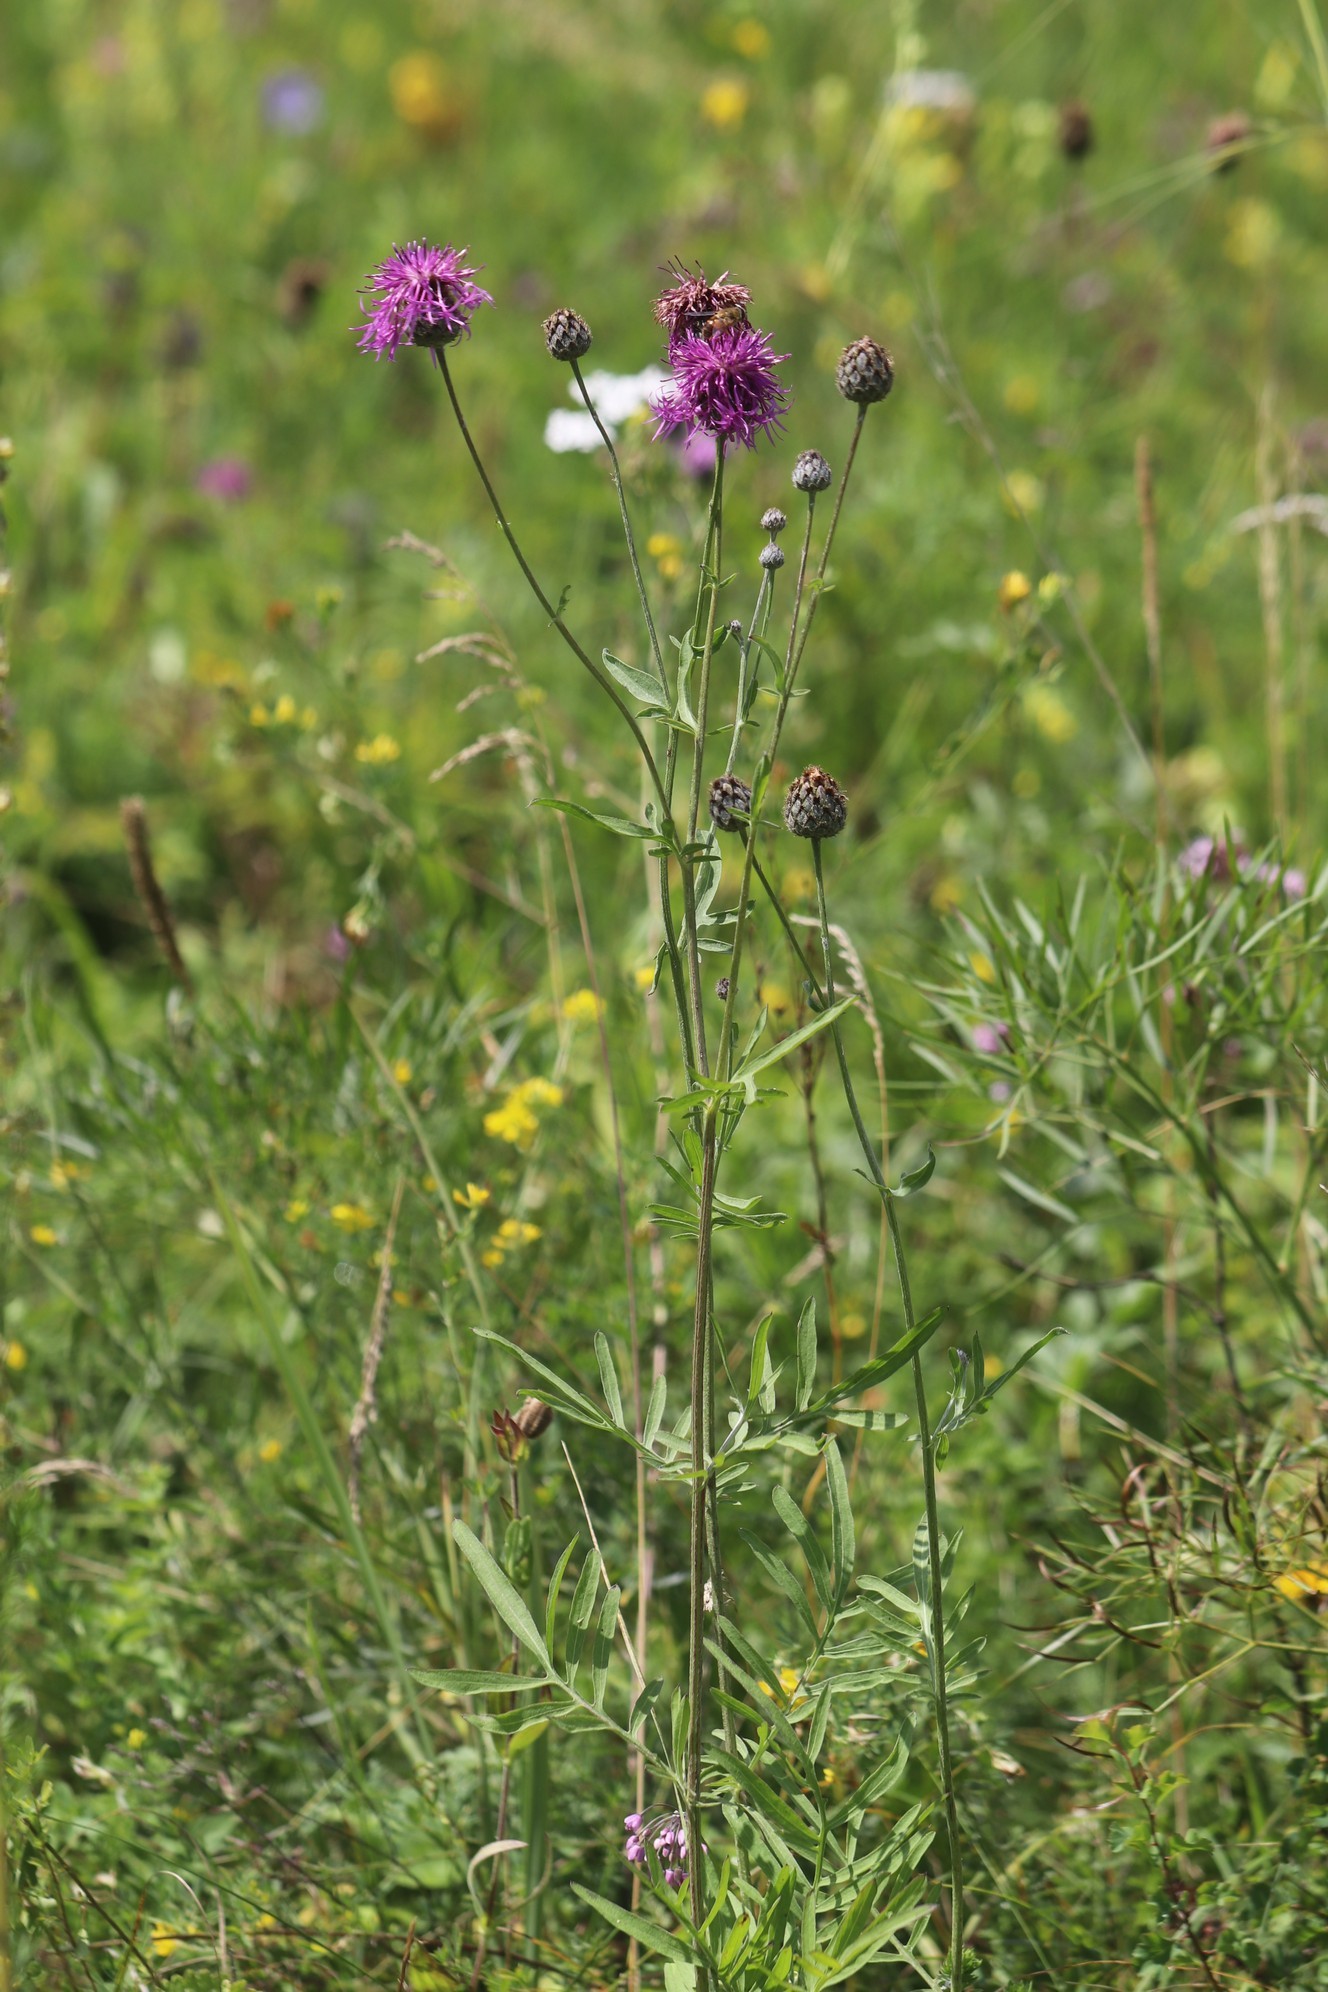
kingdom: Plantae
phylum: Tracheophyta
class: Magnoliopsida
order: Asterales
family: Asteraceae
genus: Centaurea
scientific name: Centaurea scabiosa
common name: Greater knapweed
